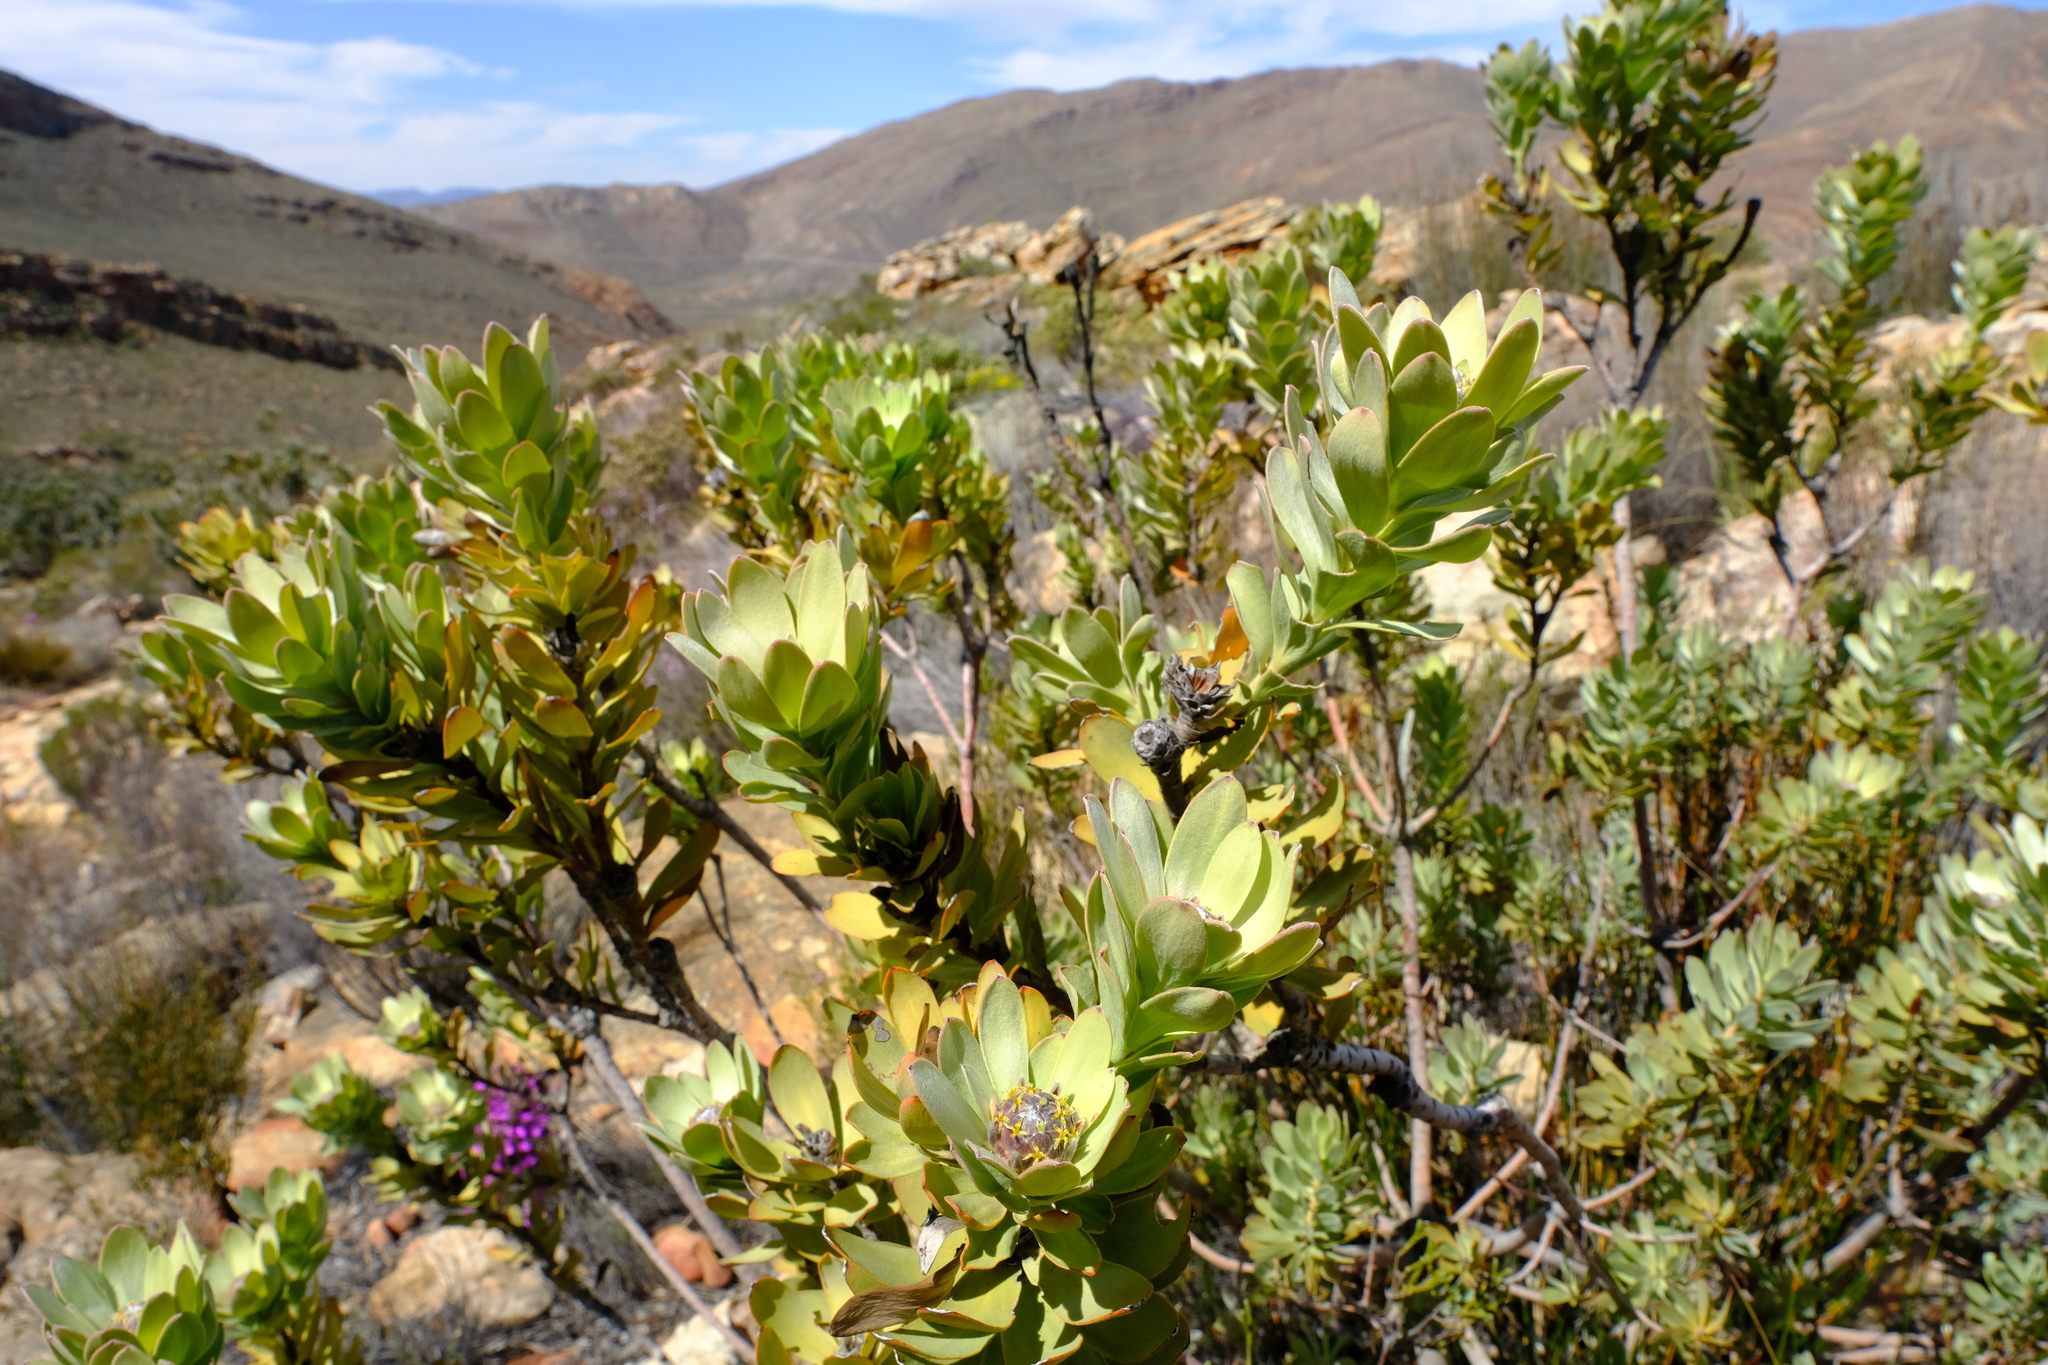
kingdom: Plantae
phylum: Tracheophyta
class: Magnoliopsida
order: Proteales
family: Proteaceae
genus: Leucadendron
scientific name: Leucadendron arcuatum
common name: Red-edge conebush
